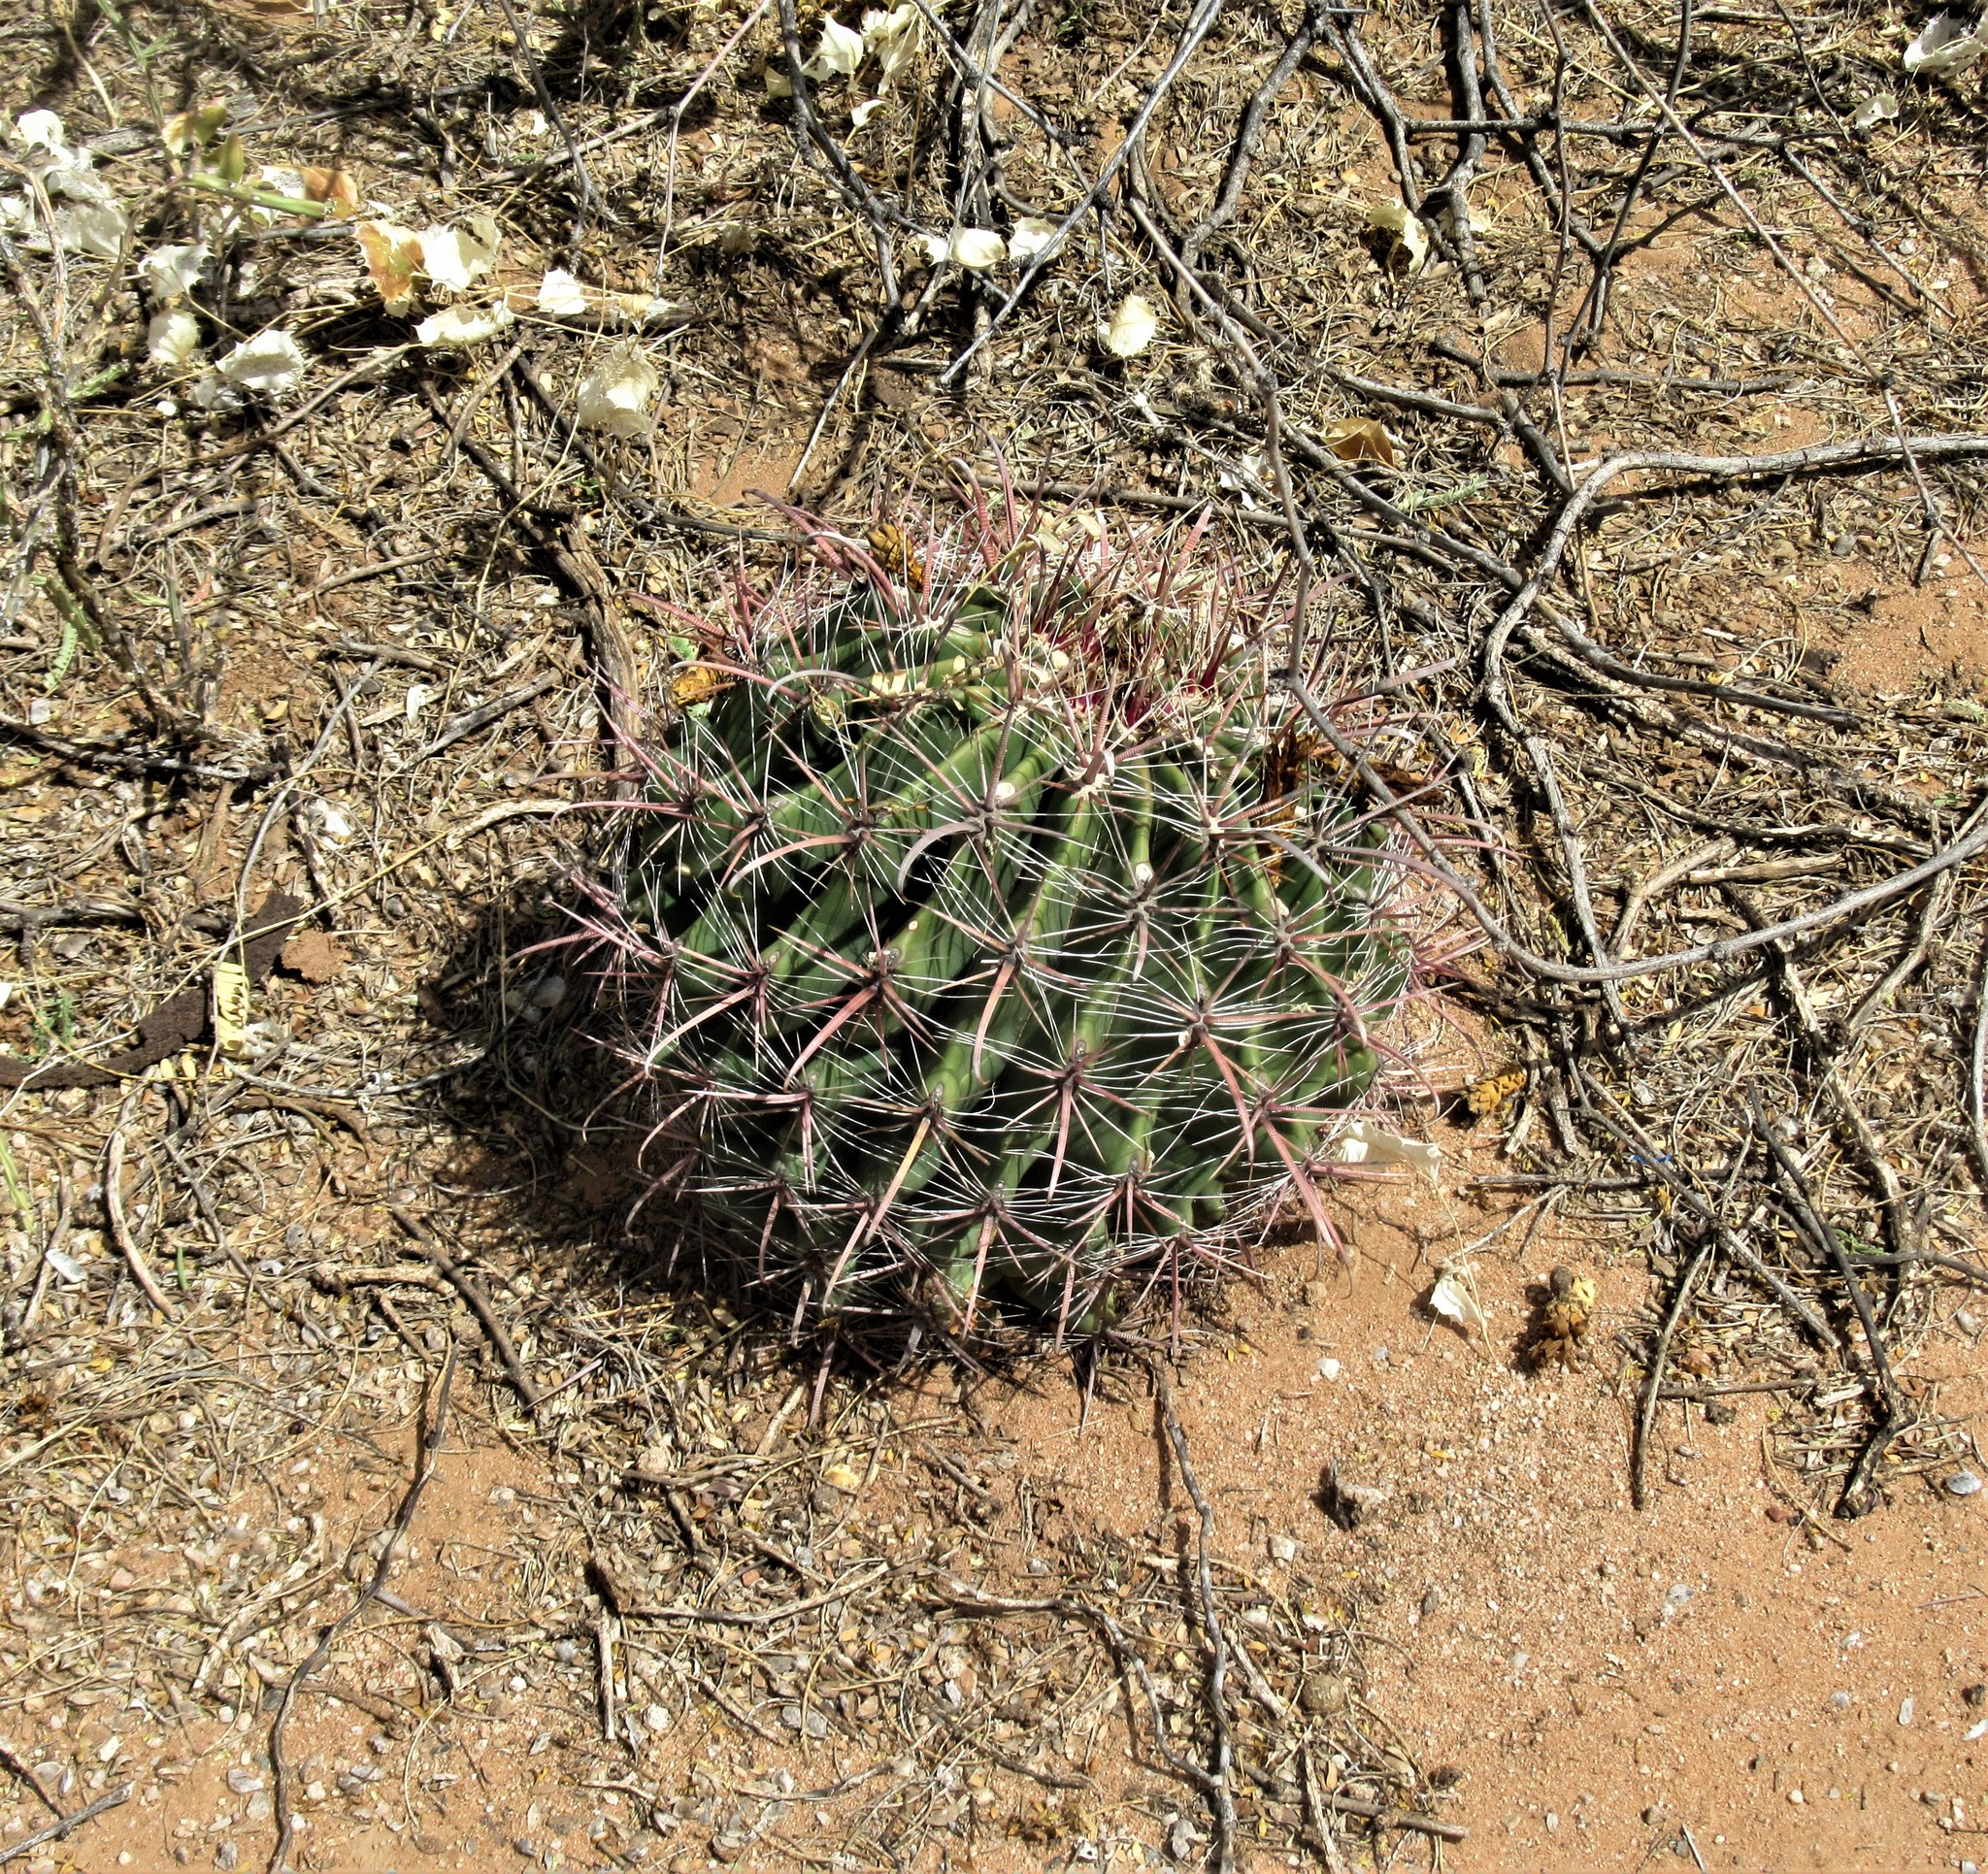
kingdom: Plantae
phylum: Tracheophyta
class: Magnoliopsida
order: Caryophyllales
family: Cactaceae
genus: Ferocactus
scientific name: Ferocactus wislizeni
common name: Candy barrel cactus
